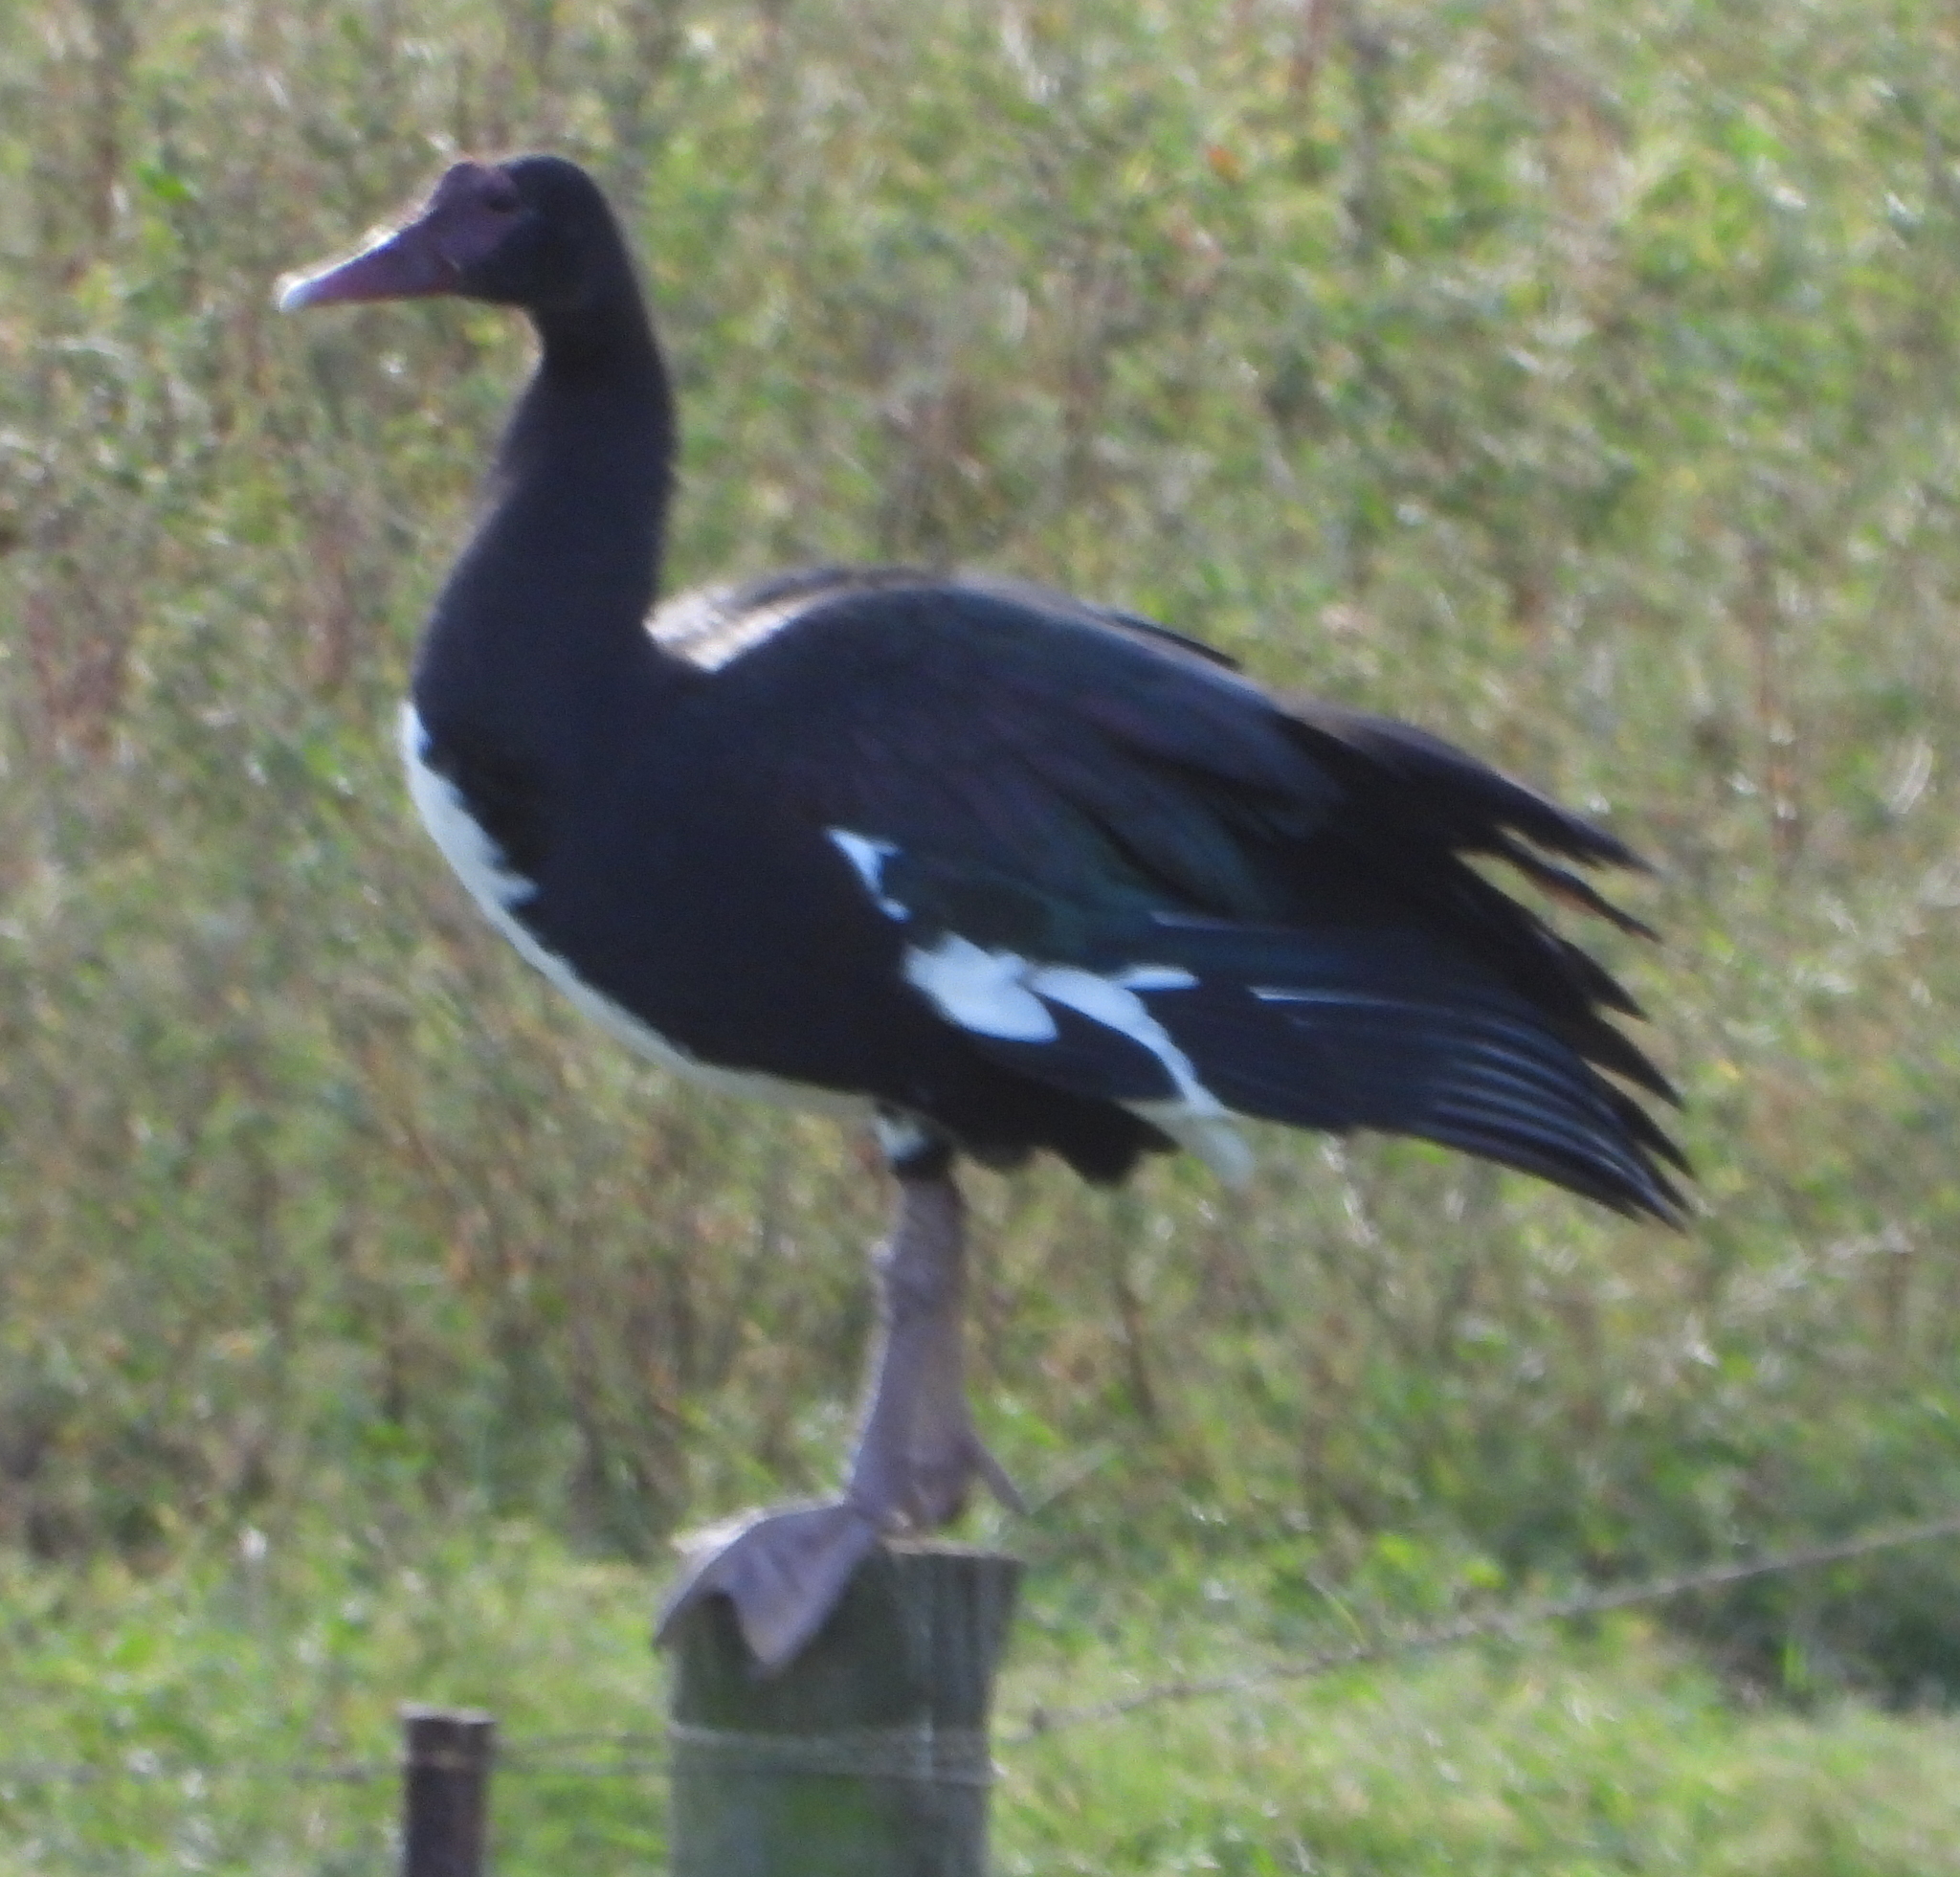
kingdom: Animalia
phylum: Chordata
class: Aves
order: Anseriformes
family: Anatidae
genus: Plectropterus
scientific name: Plectropterus gambensis
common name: Spur-winged goose
